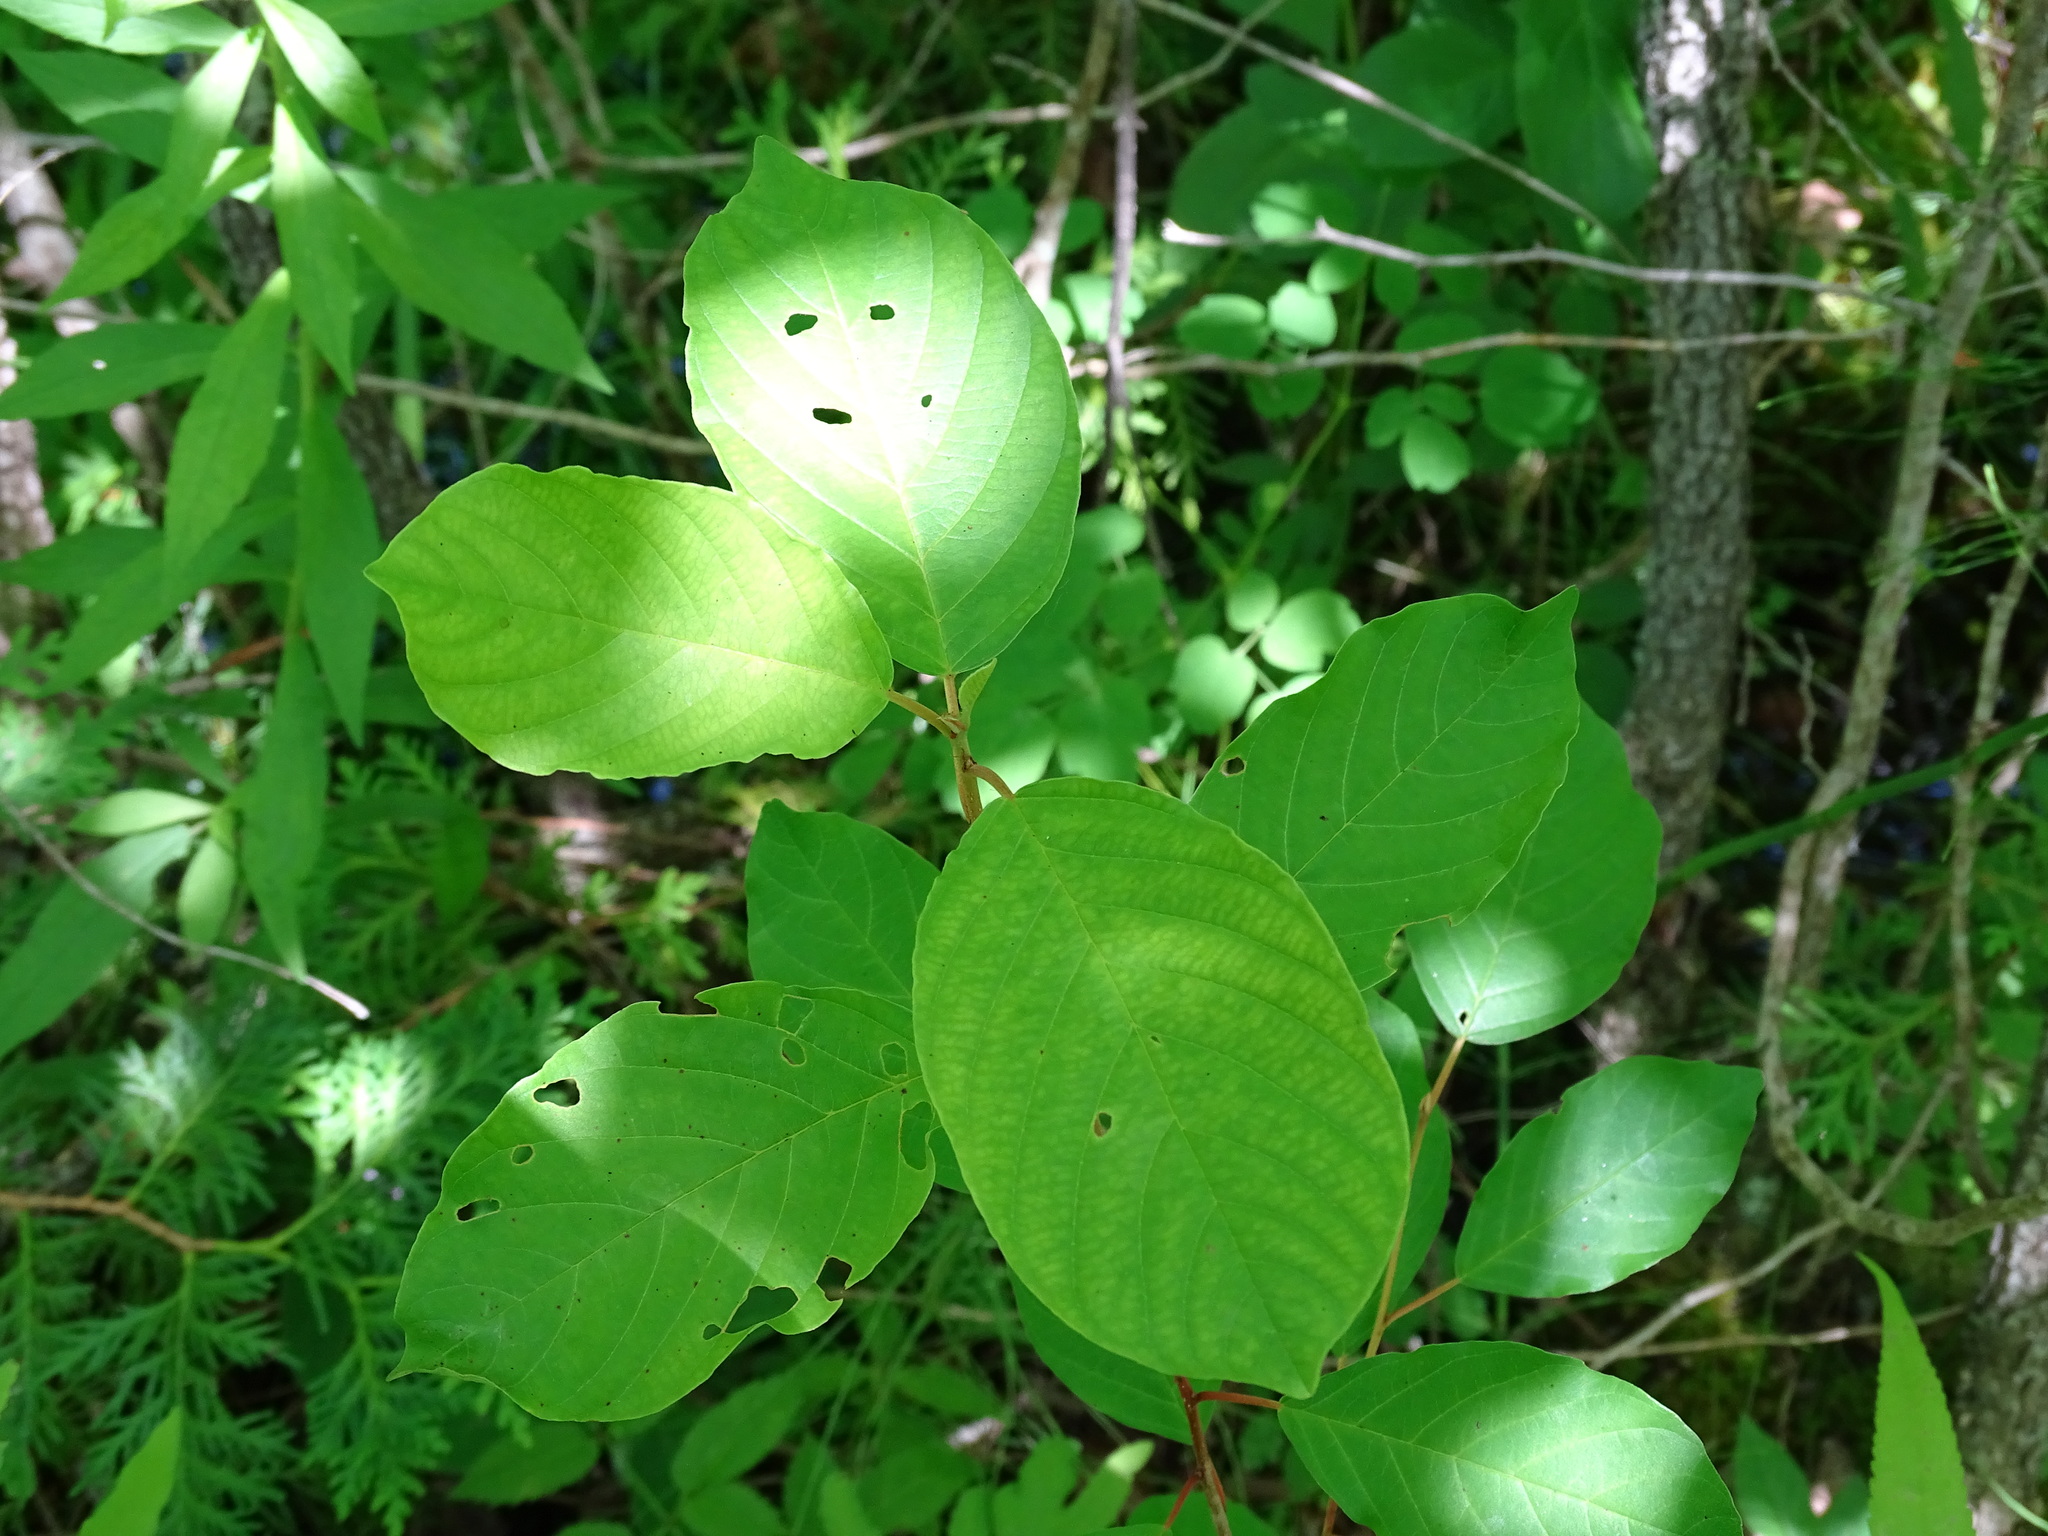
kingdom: Plantae
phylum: Tracheophyta
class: Magnoliopsida
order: Rosales
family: Rhamnaceae
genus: Frangula
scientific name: Frangula alnus
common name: Alder buckthorn
